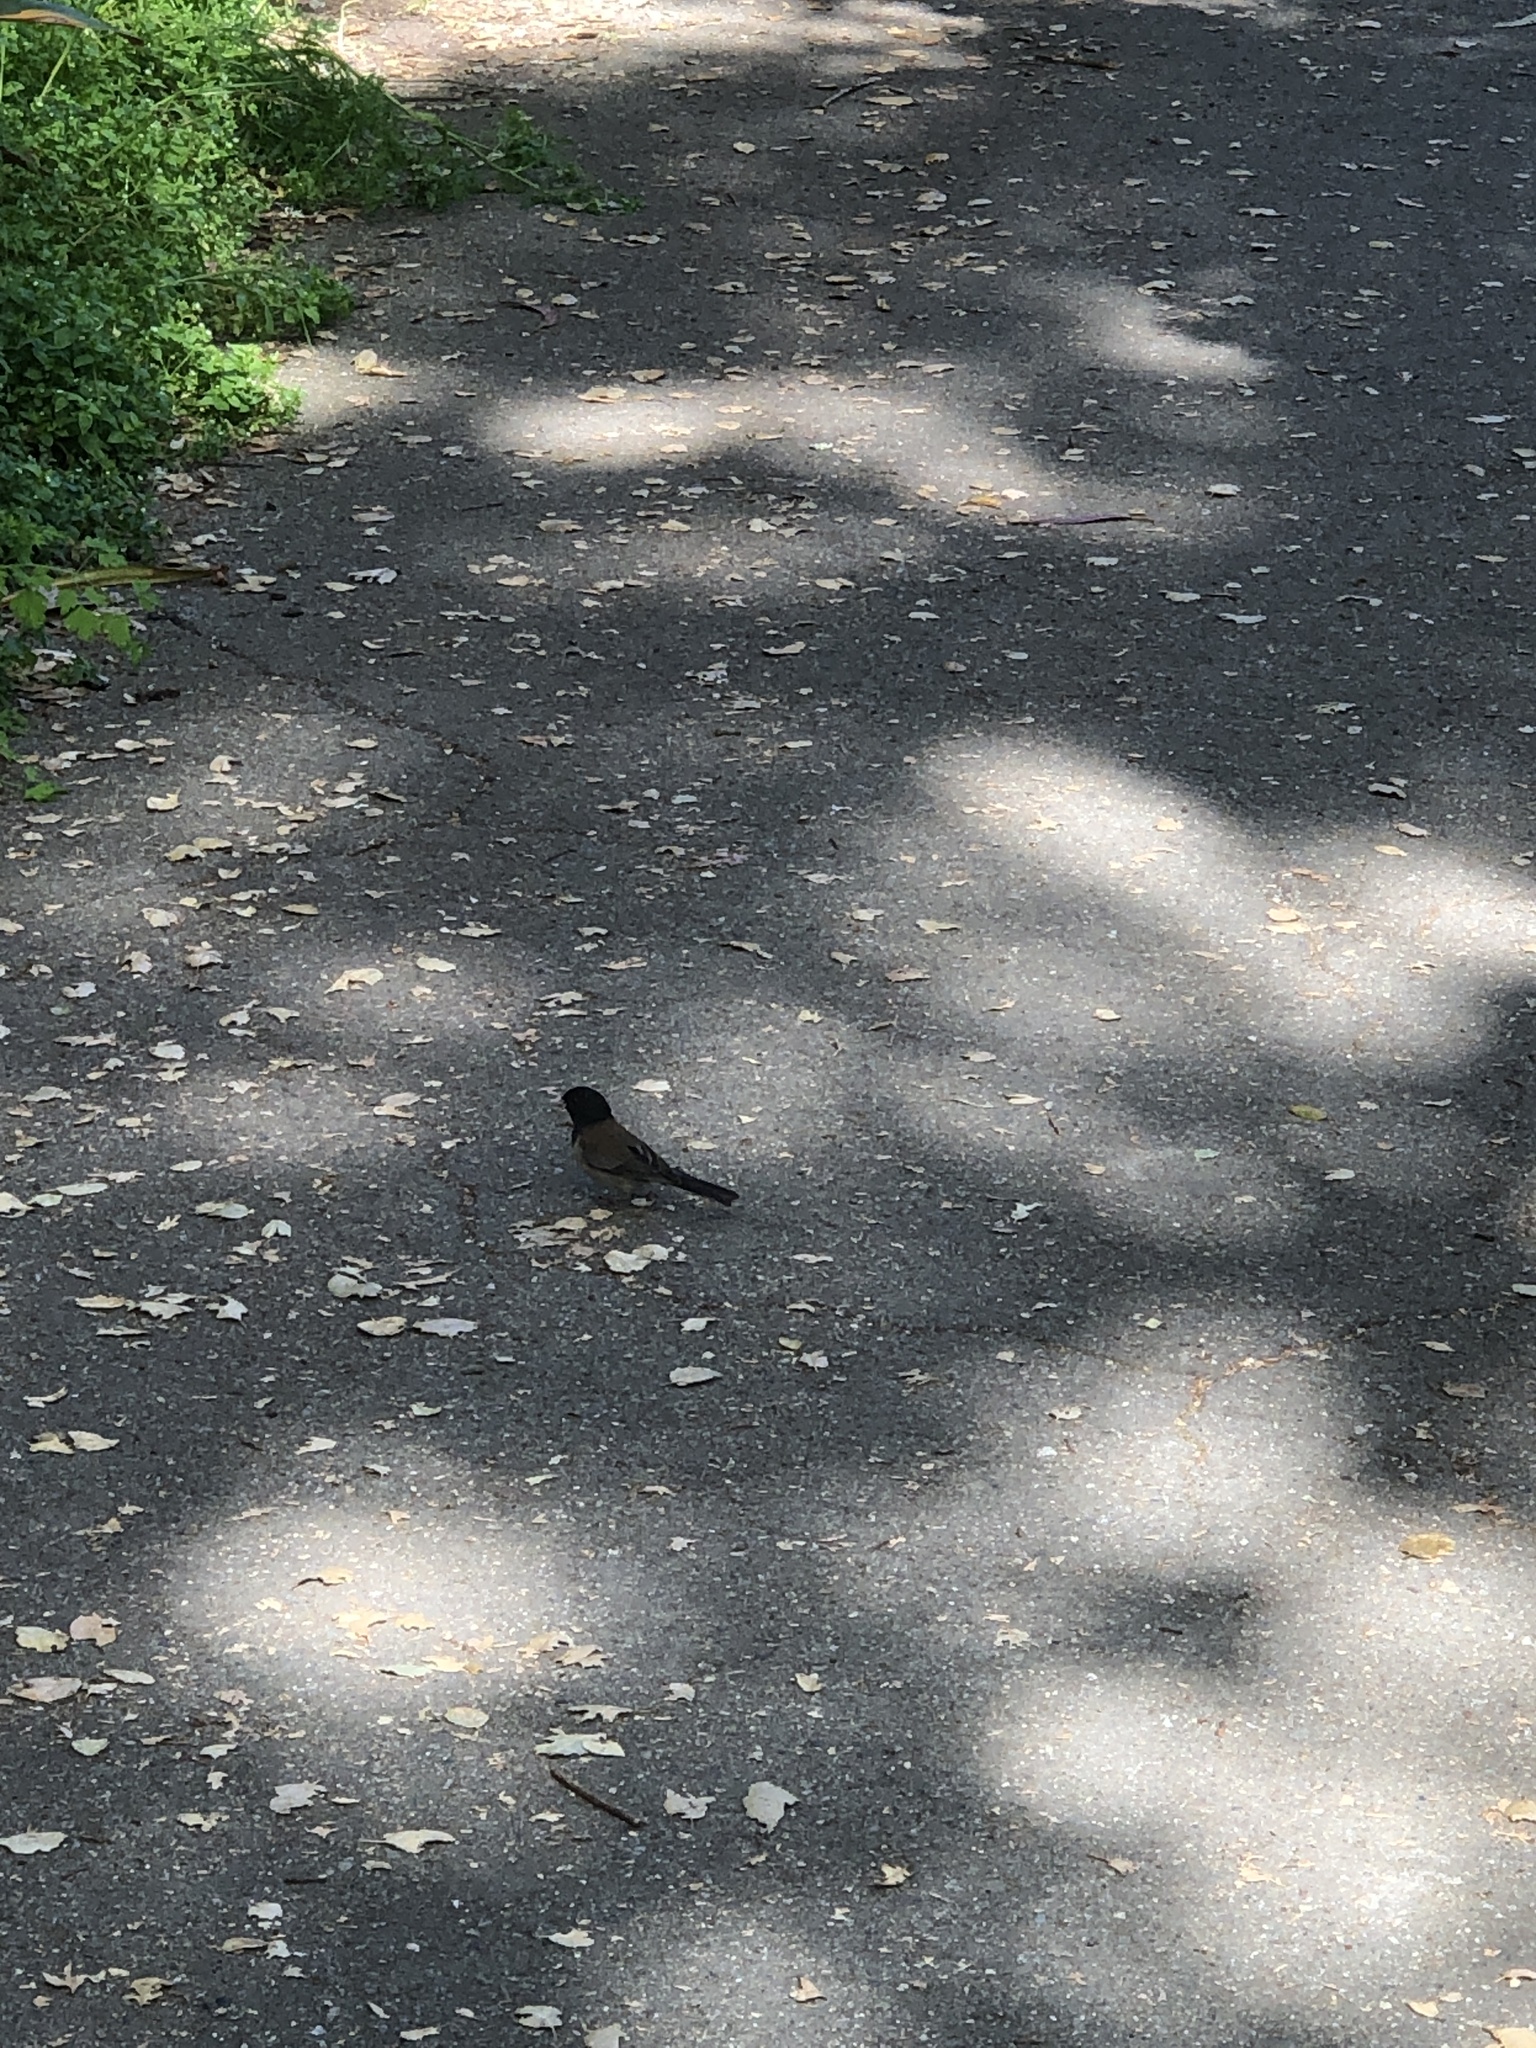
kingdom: Animalia
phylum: Chordata
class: Aves
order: Passeriformes
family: Passerellidae
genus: Junco
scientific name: Junco hyemalis
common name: Dark-eyed junco
